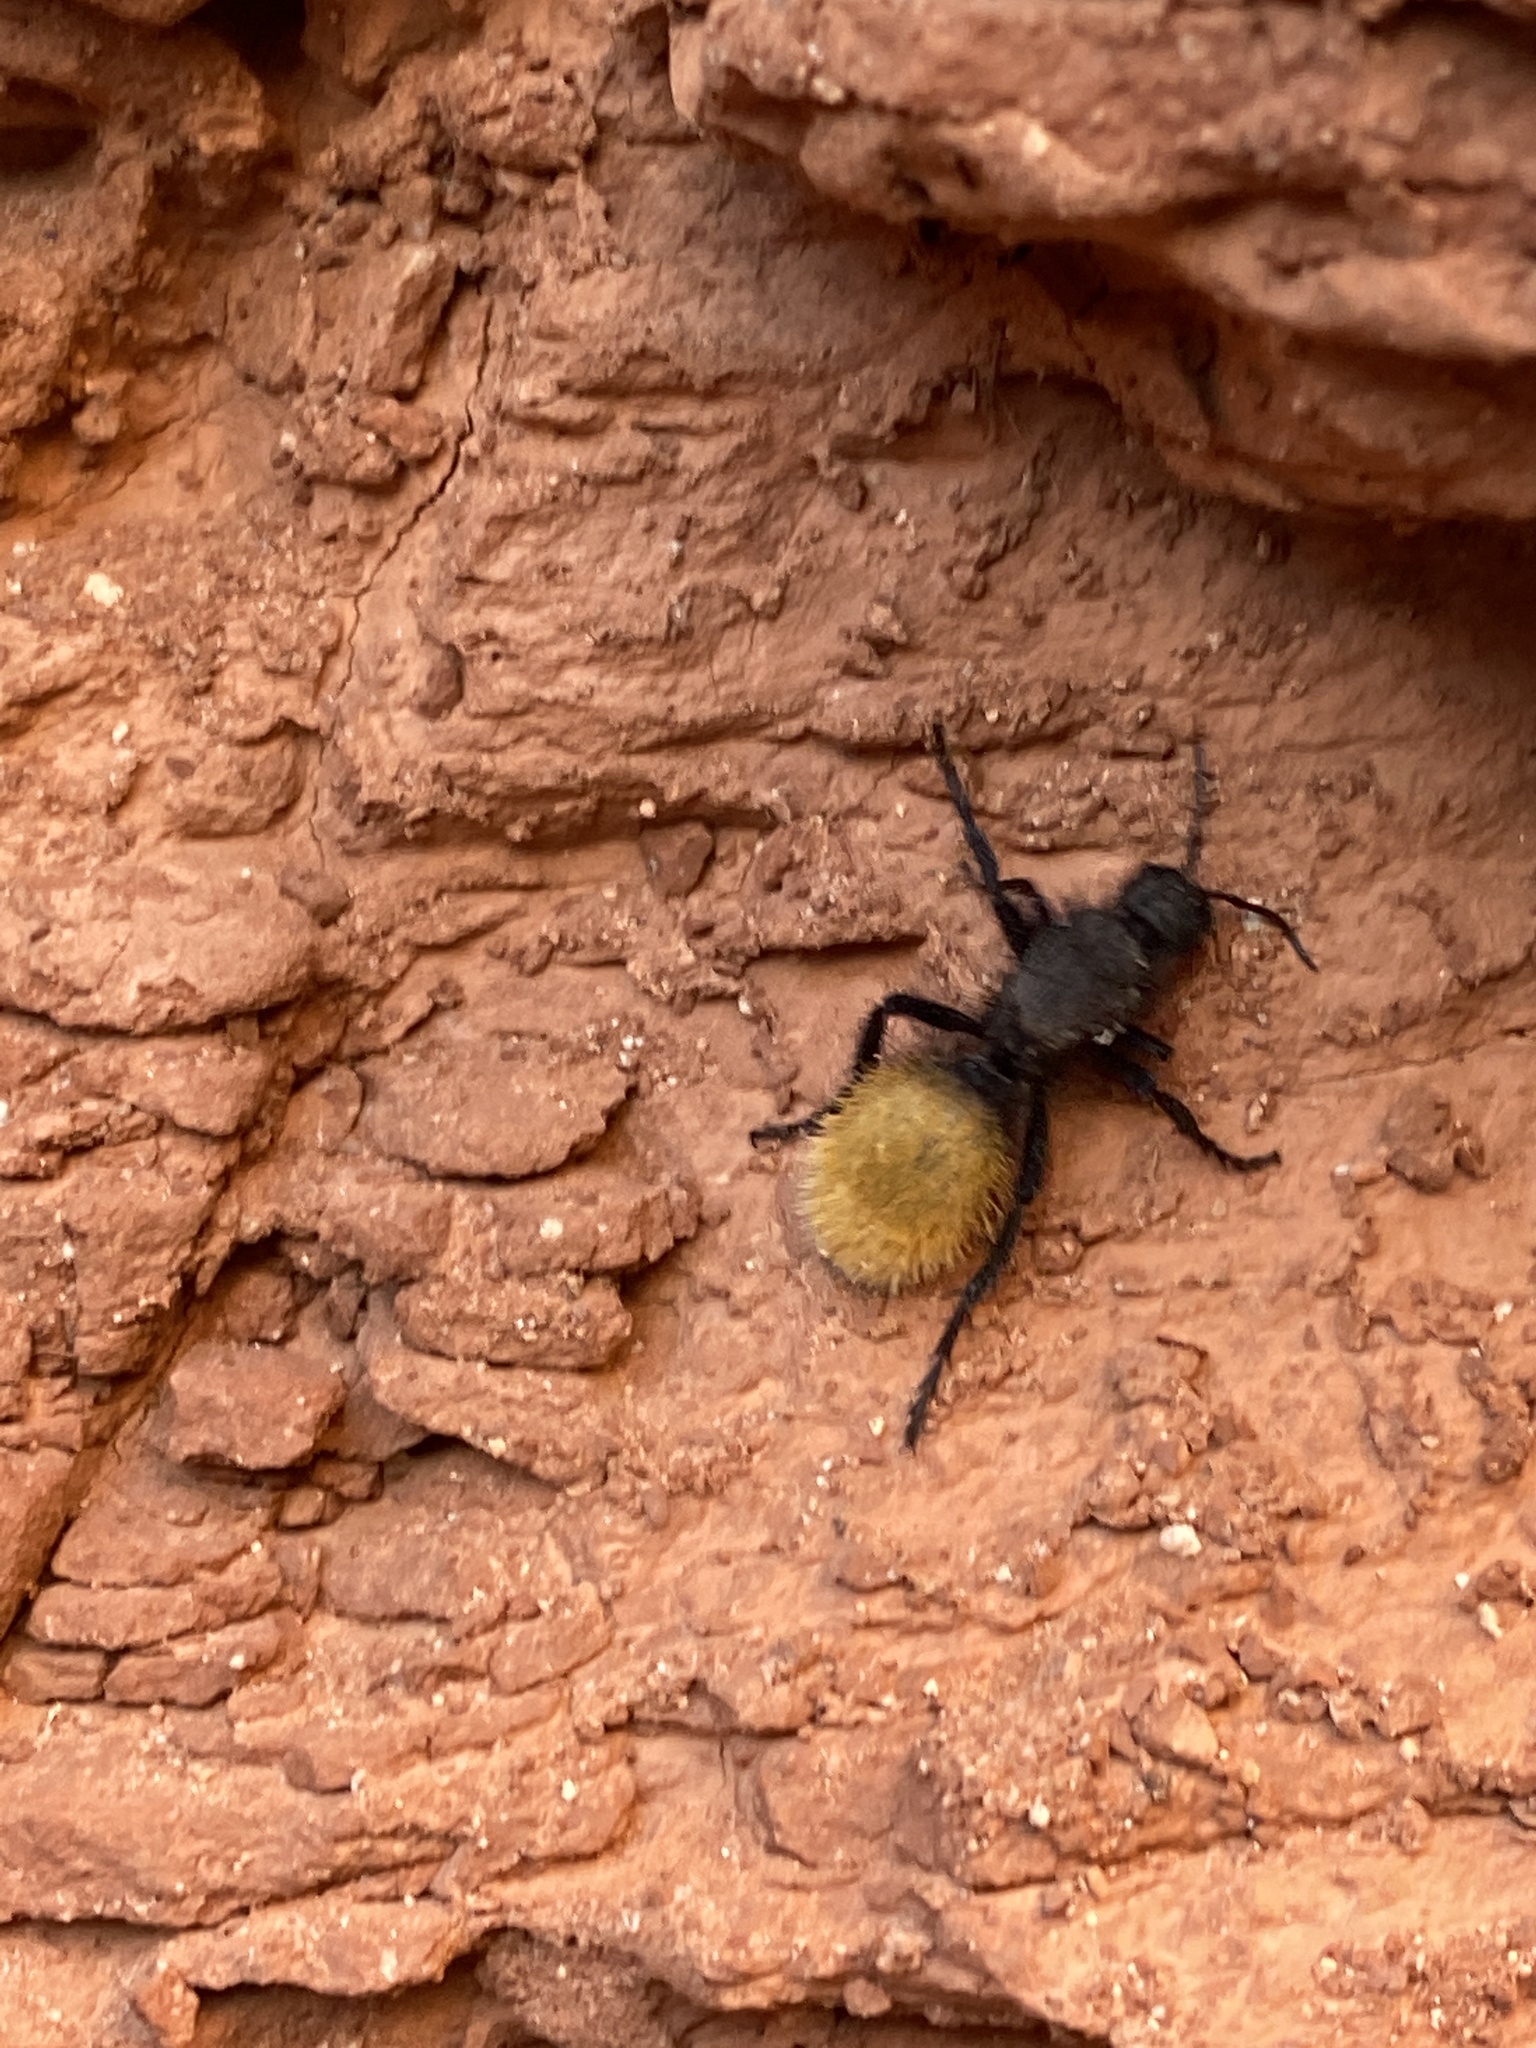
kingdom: Animalia
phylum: Arthropoda
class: Insecta
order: Hymenoptera
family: Mutillidae
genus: Dasymutilla
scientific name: Dasymutilla
